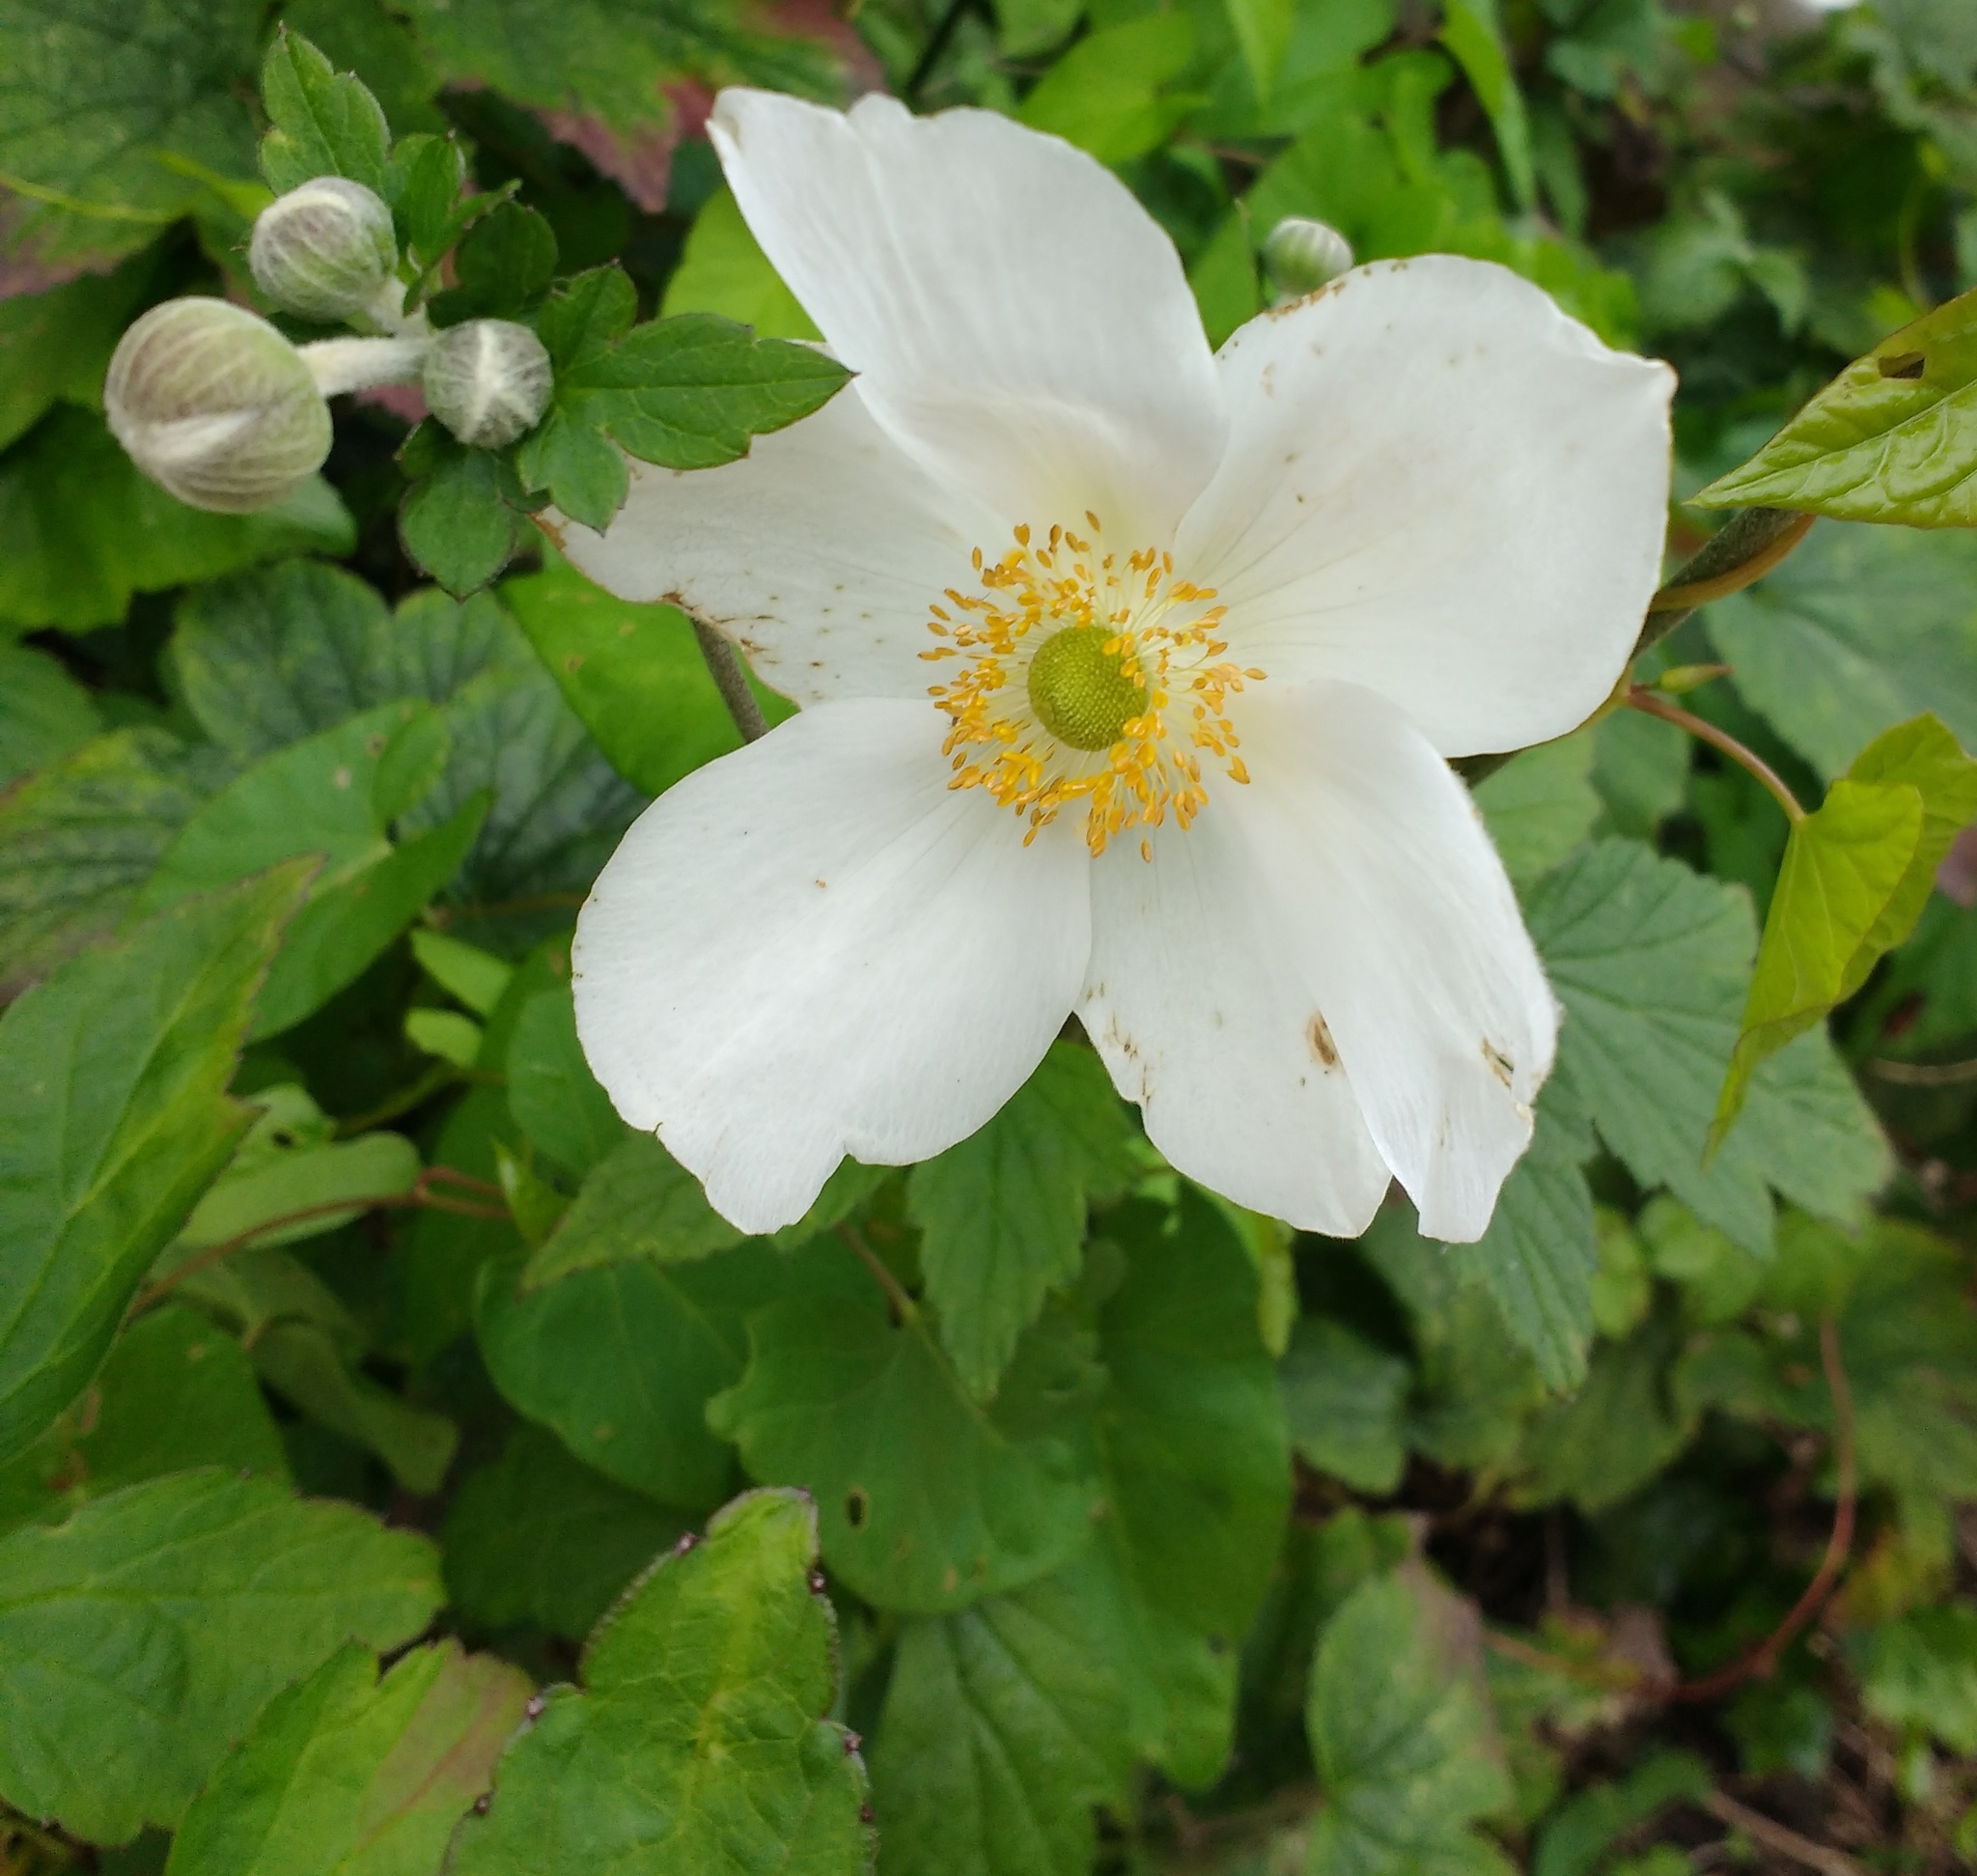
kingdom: Plantae
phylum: Tracheophyta
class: Magnoliopsida
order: Ranunculales
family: Ranunculaceae
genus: Eriocapitella
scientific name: Eriocapitella hupehensis
